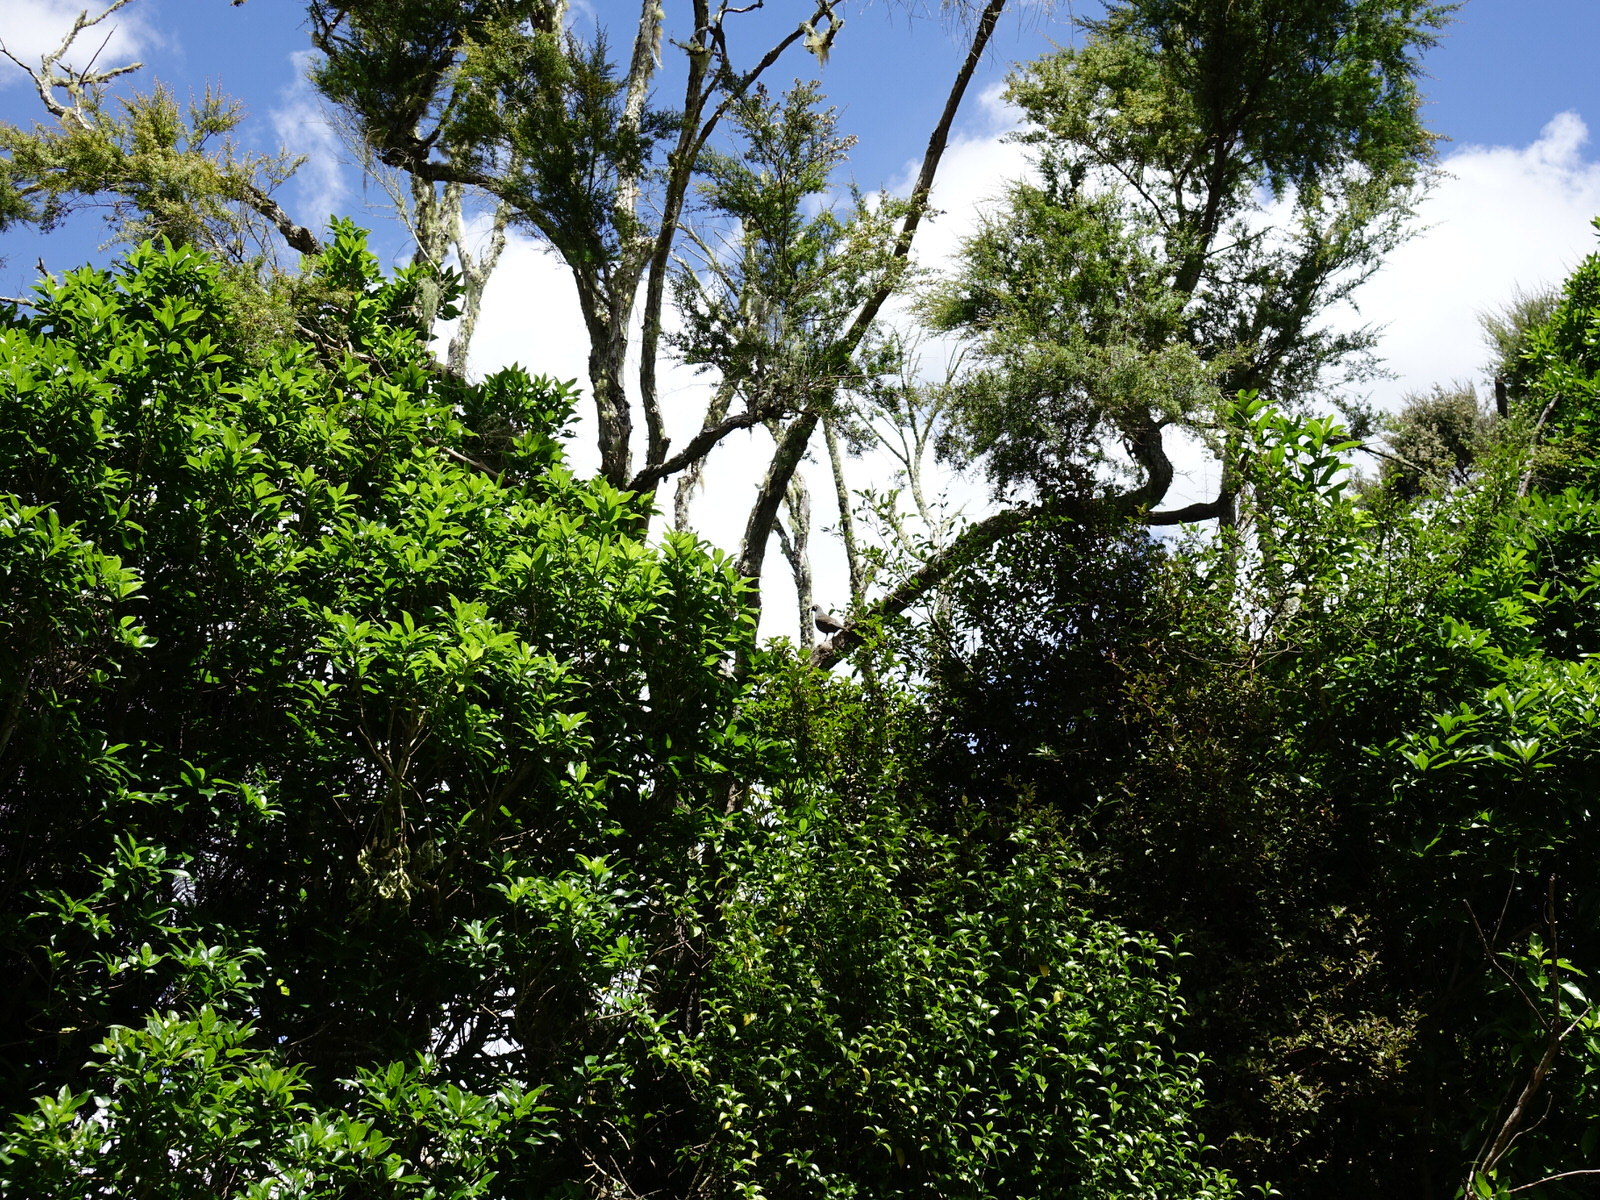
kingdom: Animalia
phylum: Chordata
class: Aves
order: Galliformes
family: Odontophoridae
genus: Callipepla
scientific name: Callipepla californica
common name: California quail
